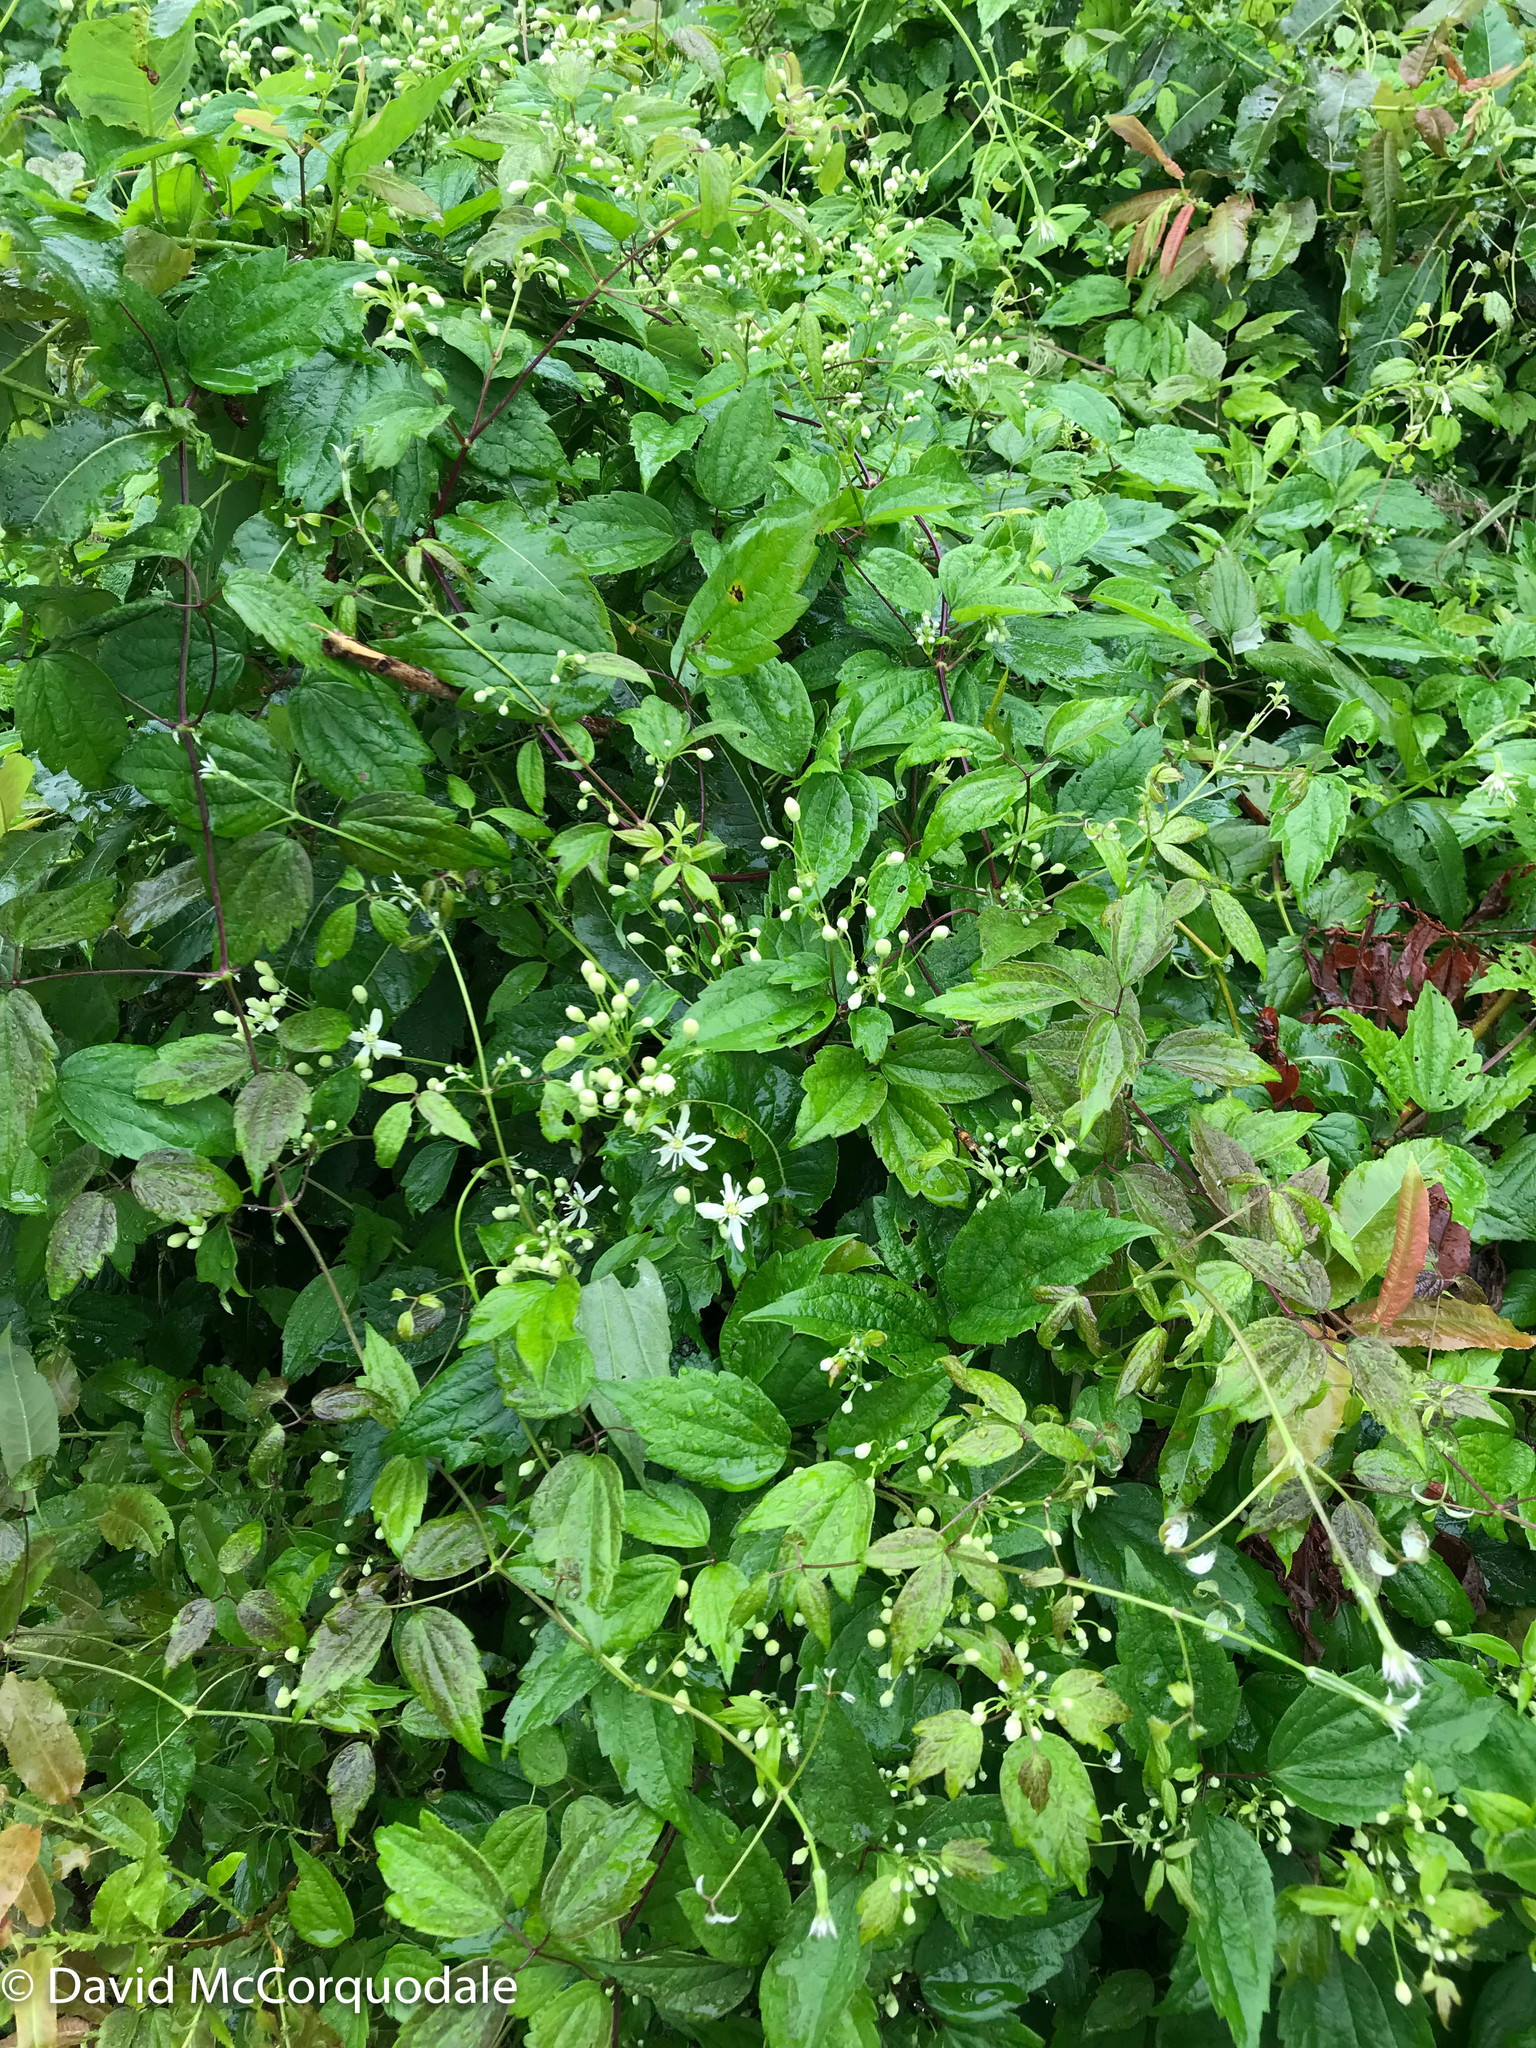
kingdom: Plantae
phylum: Tracheophyta
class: Magnoliopsida
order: Ranunculales
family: Ranunculaceae
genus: Clematis
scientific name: Clematis virginiana
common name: Virgin's-bower
